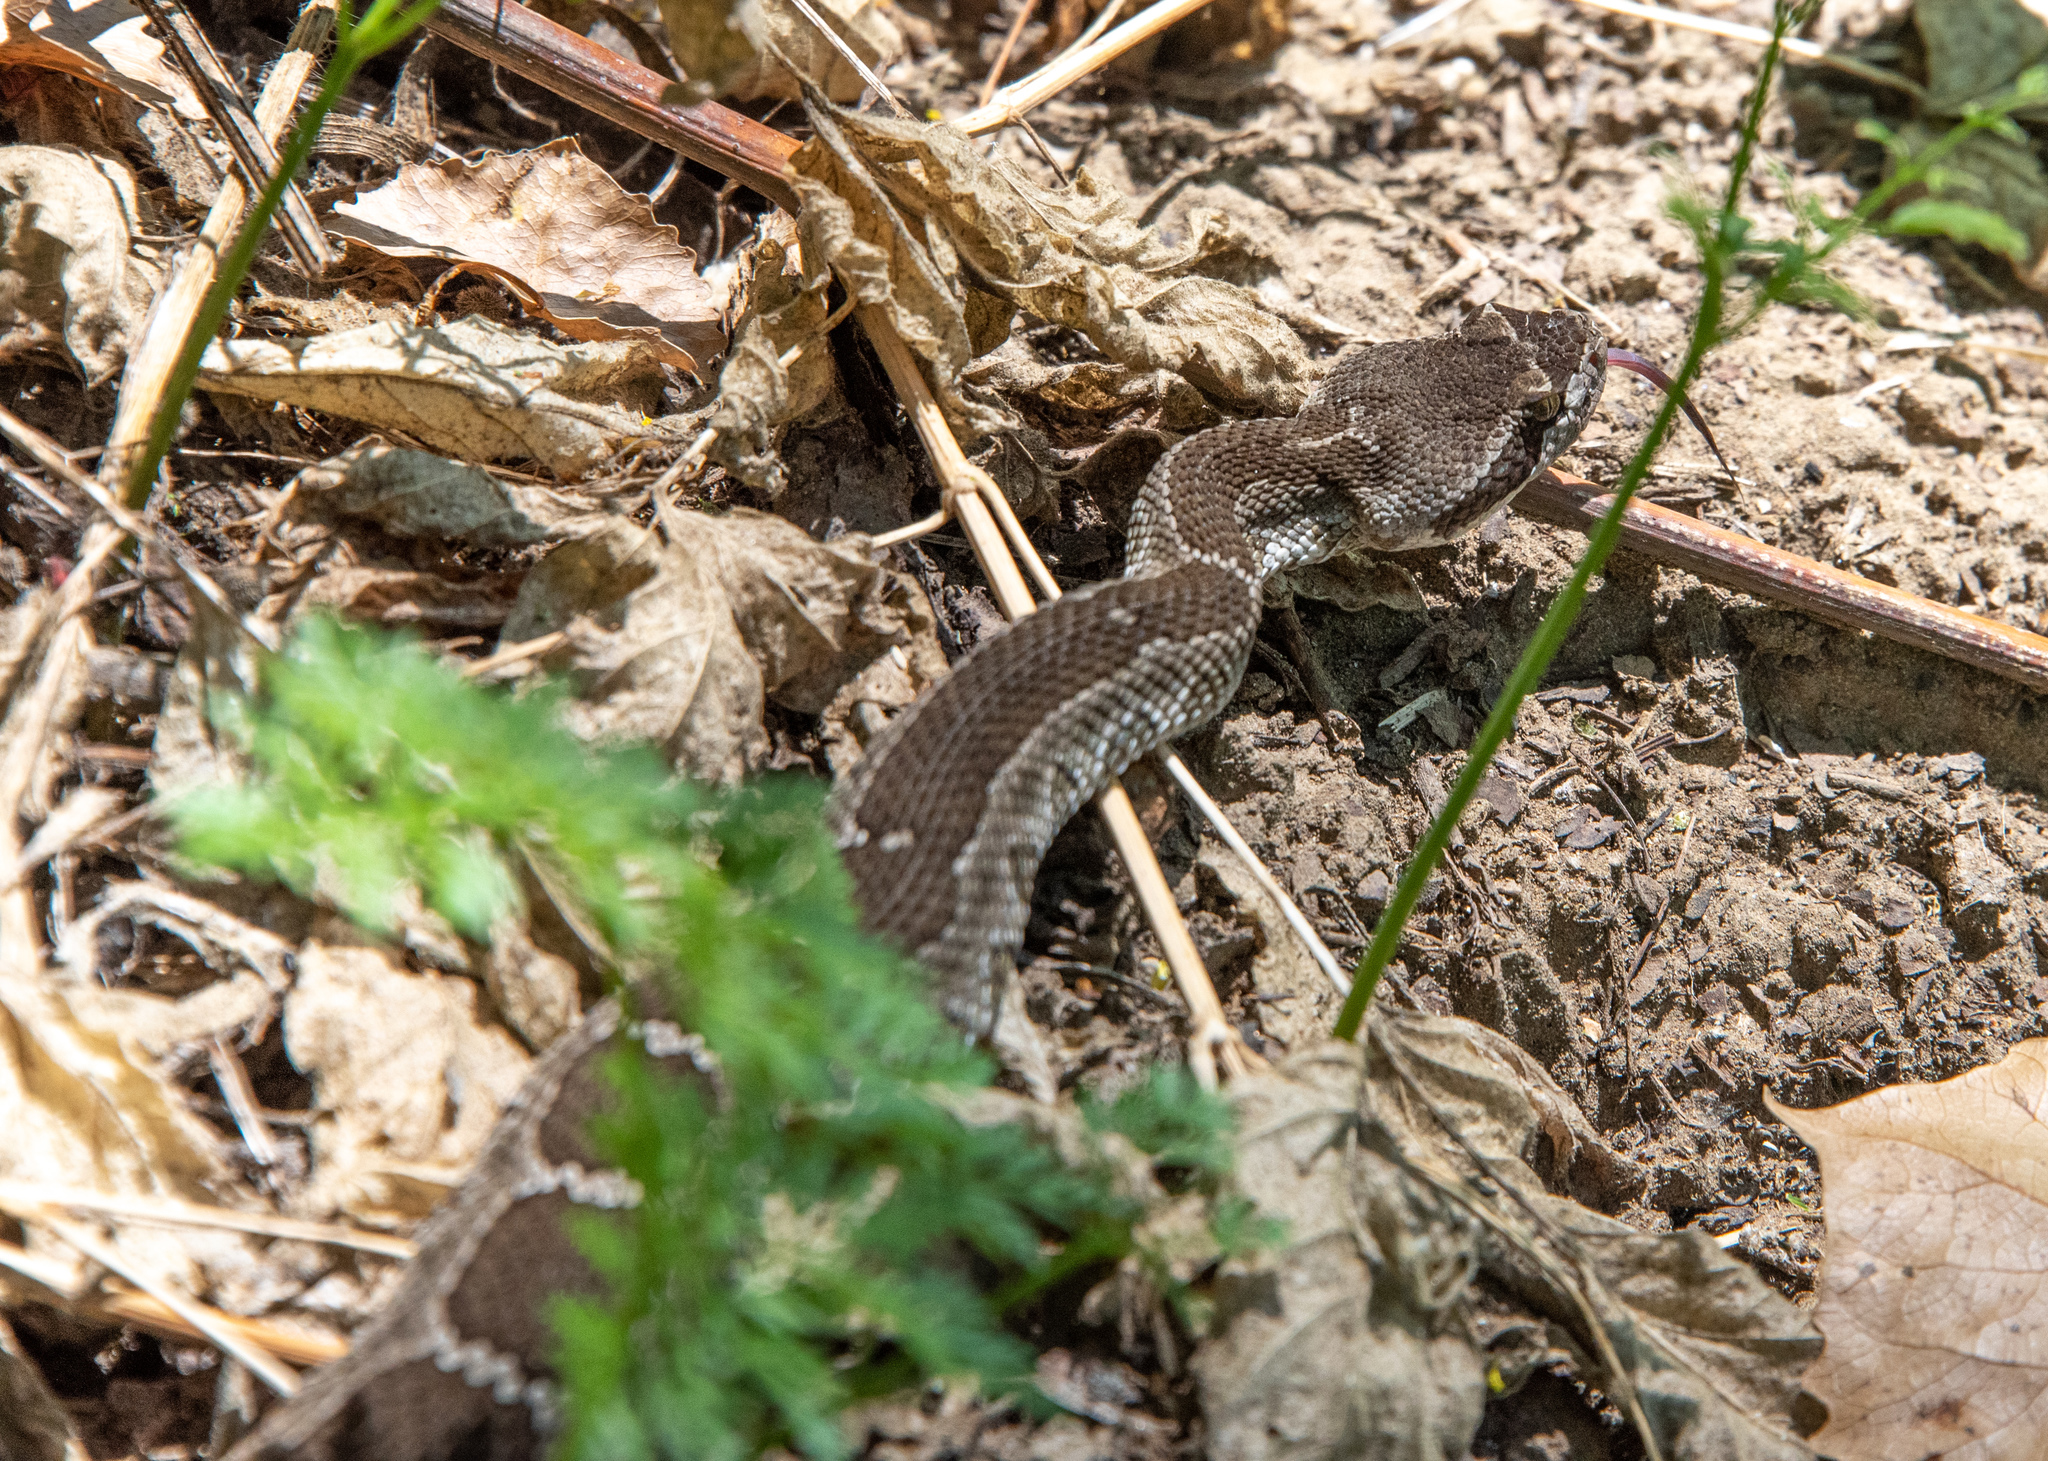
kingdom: Animalia
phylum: Chordata
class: Squamata
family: Viperidae
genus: Crotalus
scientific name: Crotalus oreganus
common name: Abyssus
